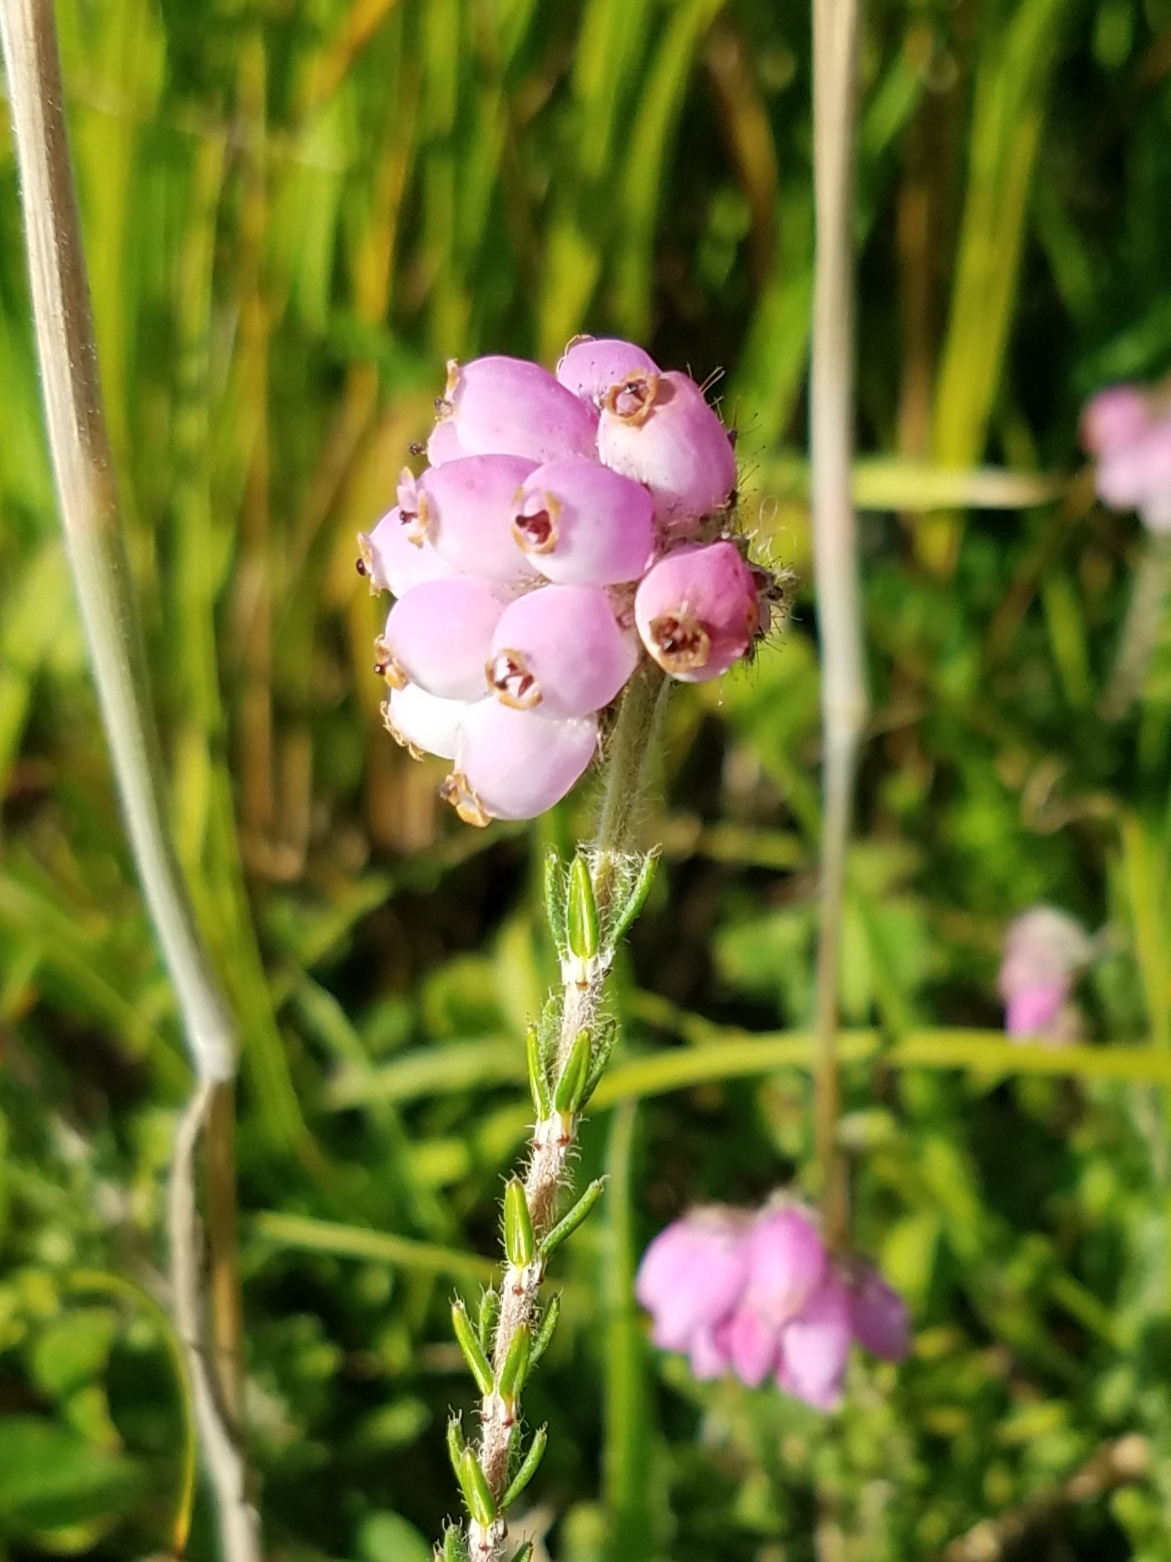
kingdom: Plantae
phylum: Tracheophyta
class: Magnoliopsida
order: Ericales
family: Ericaceae
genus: Erica
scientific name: Erica tetralix
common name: Cross-leaved heath
